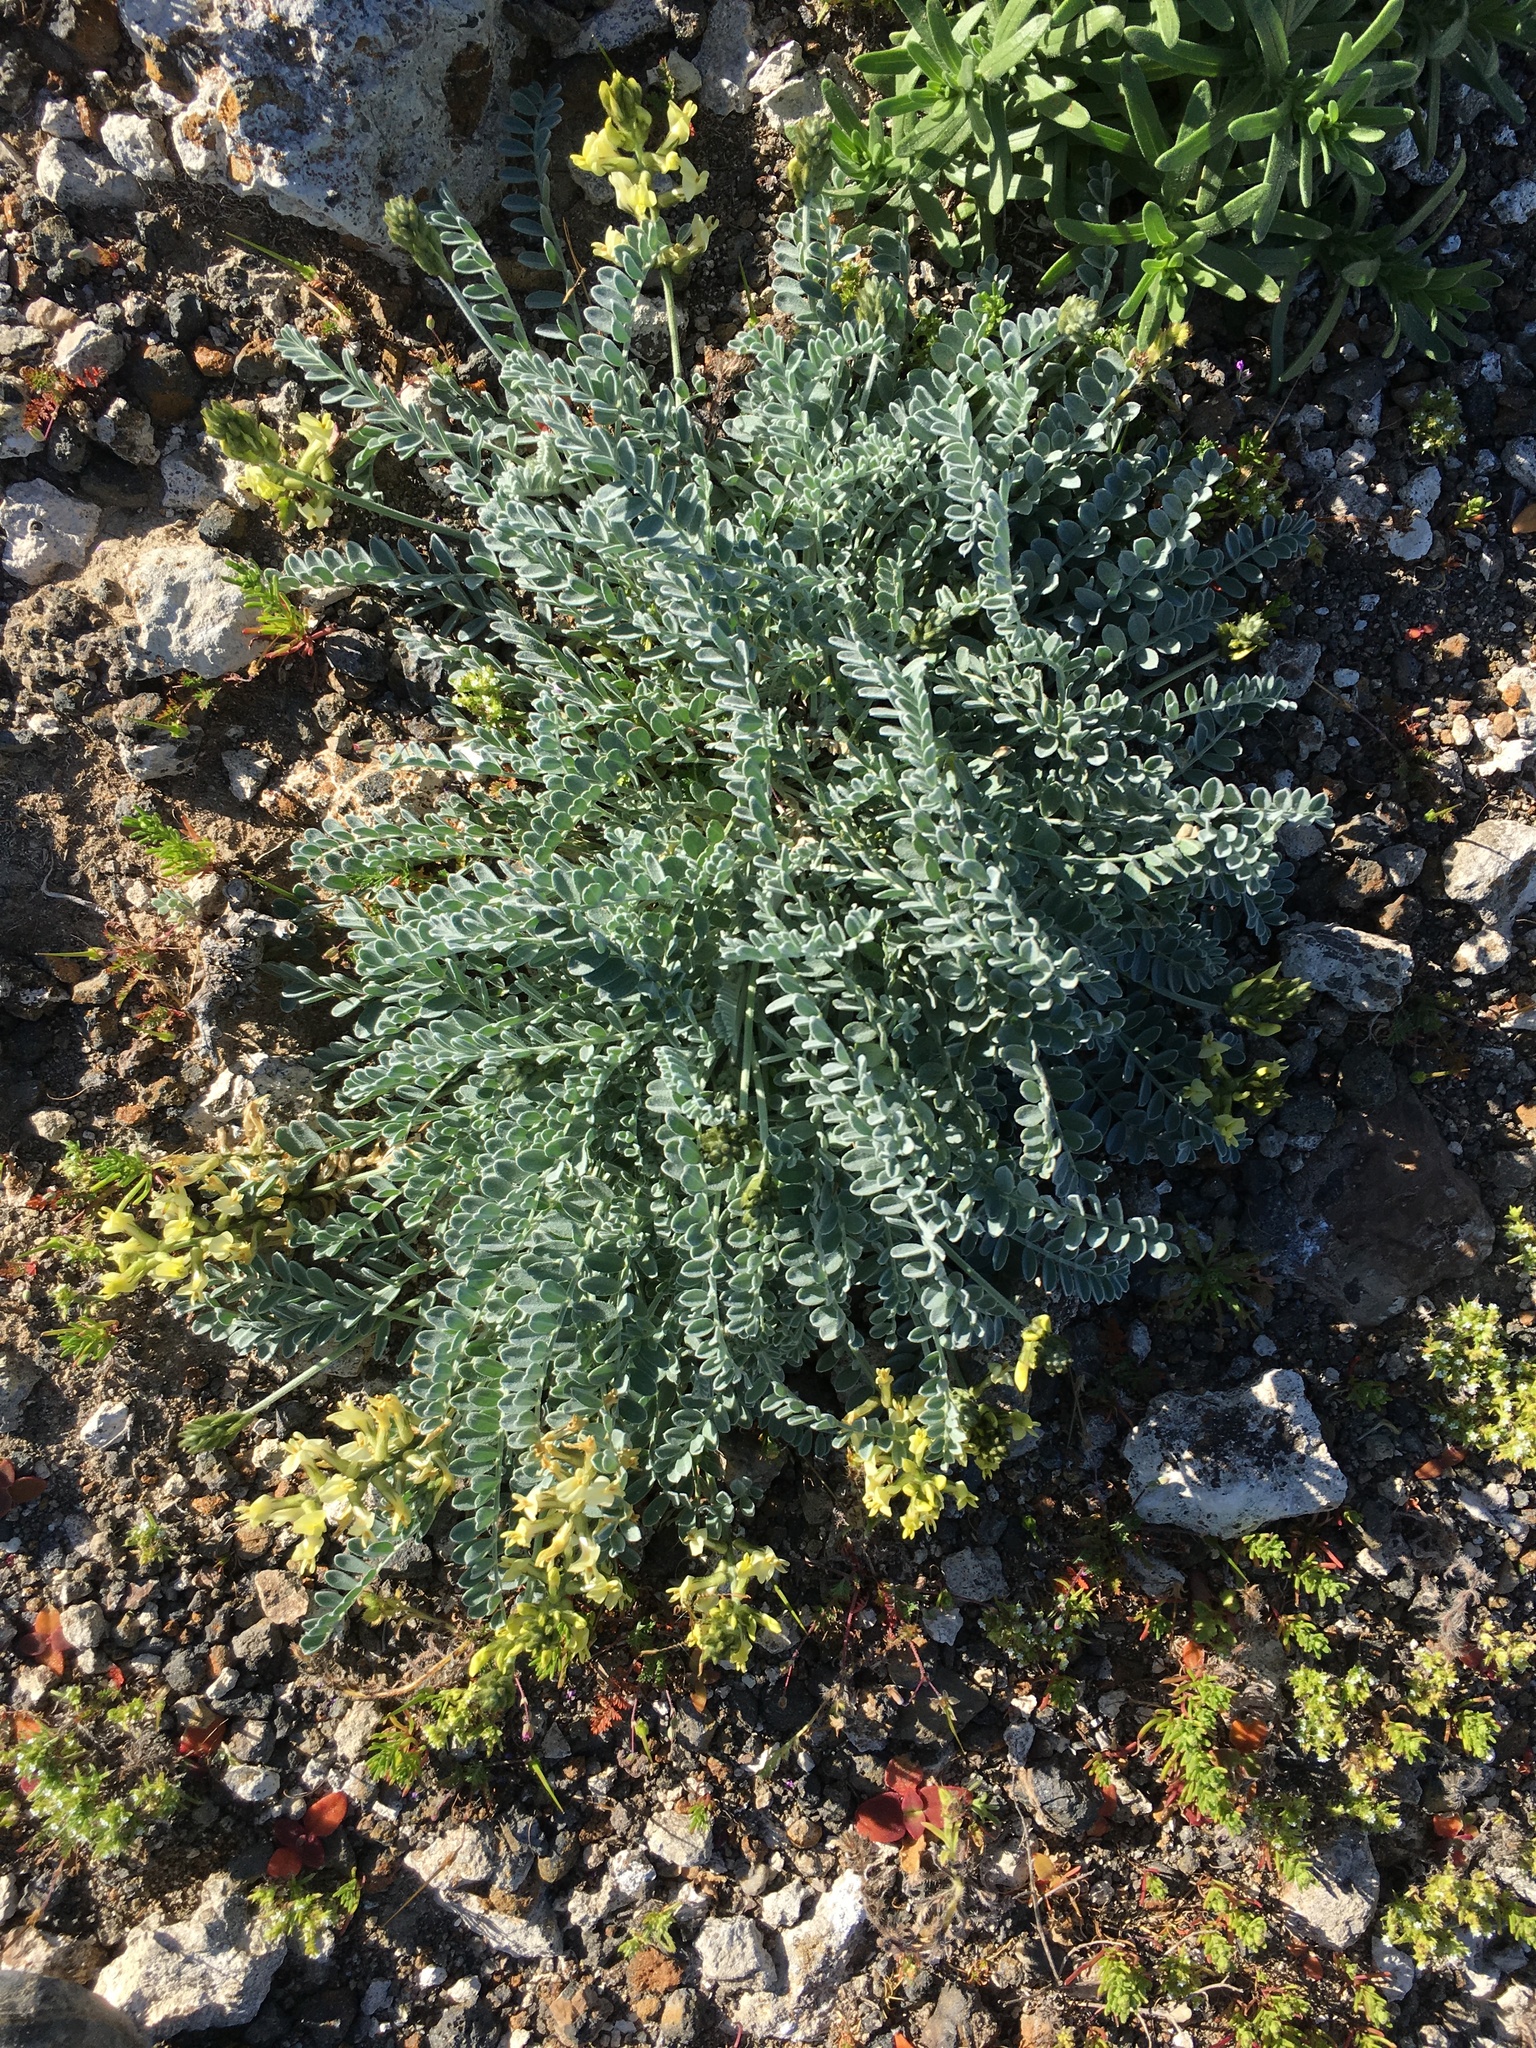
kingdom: Plantae
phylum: Tracheophyta
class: Magnoliopsida
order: Fabales
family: Fabaceae
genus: Astragalus
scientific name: Astragalus traskiae
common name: Trask's milk-vetch
